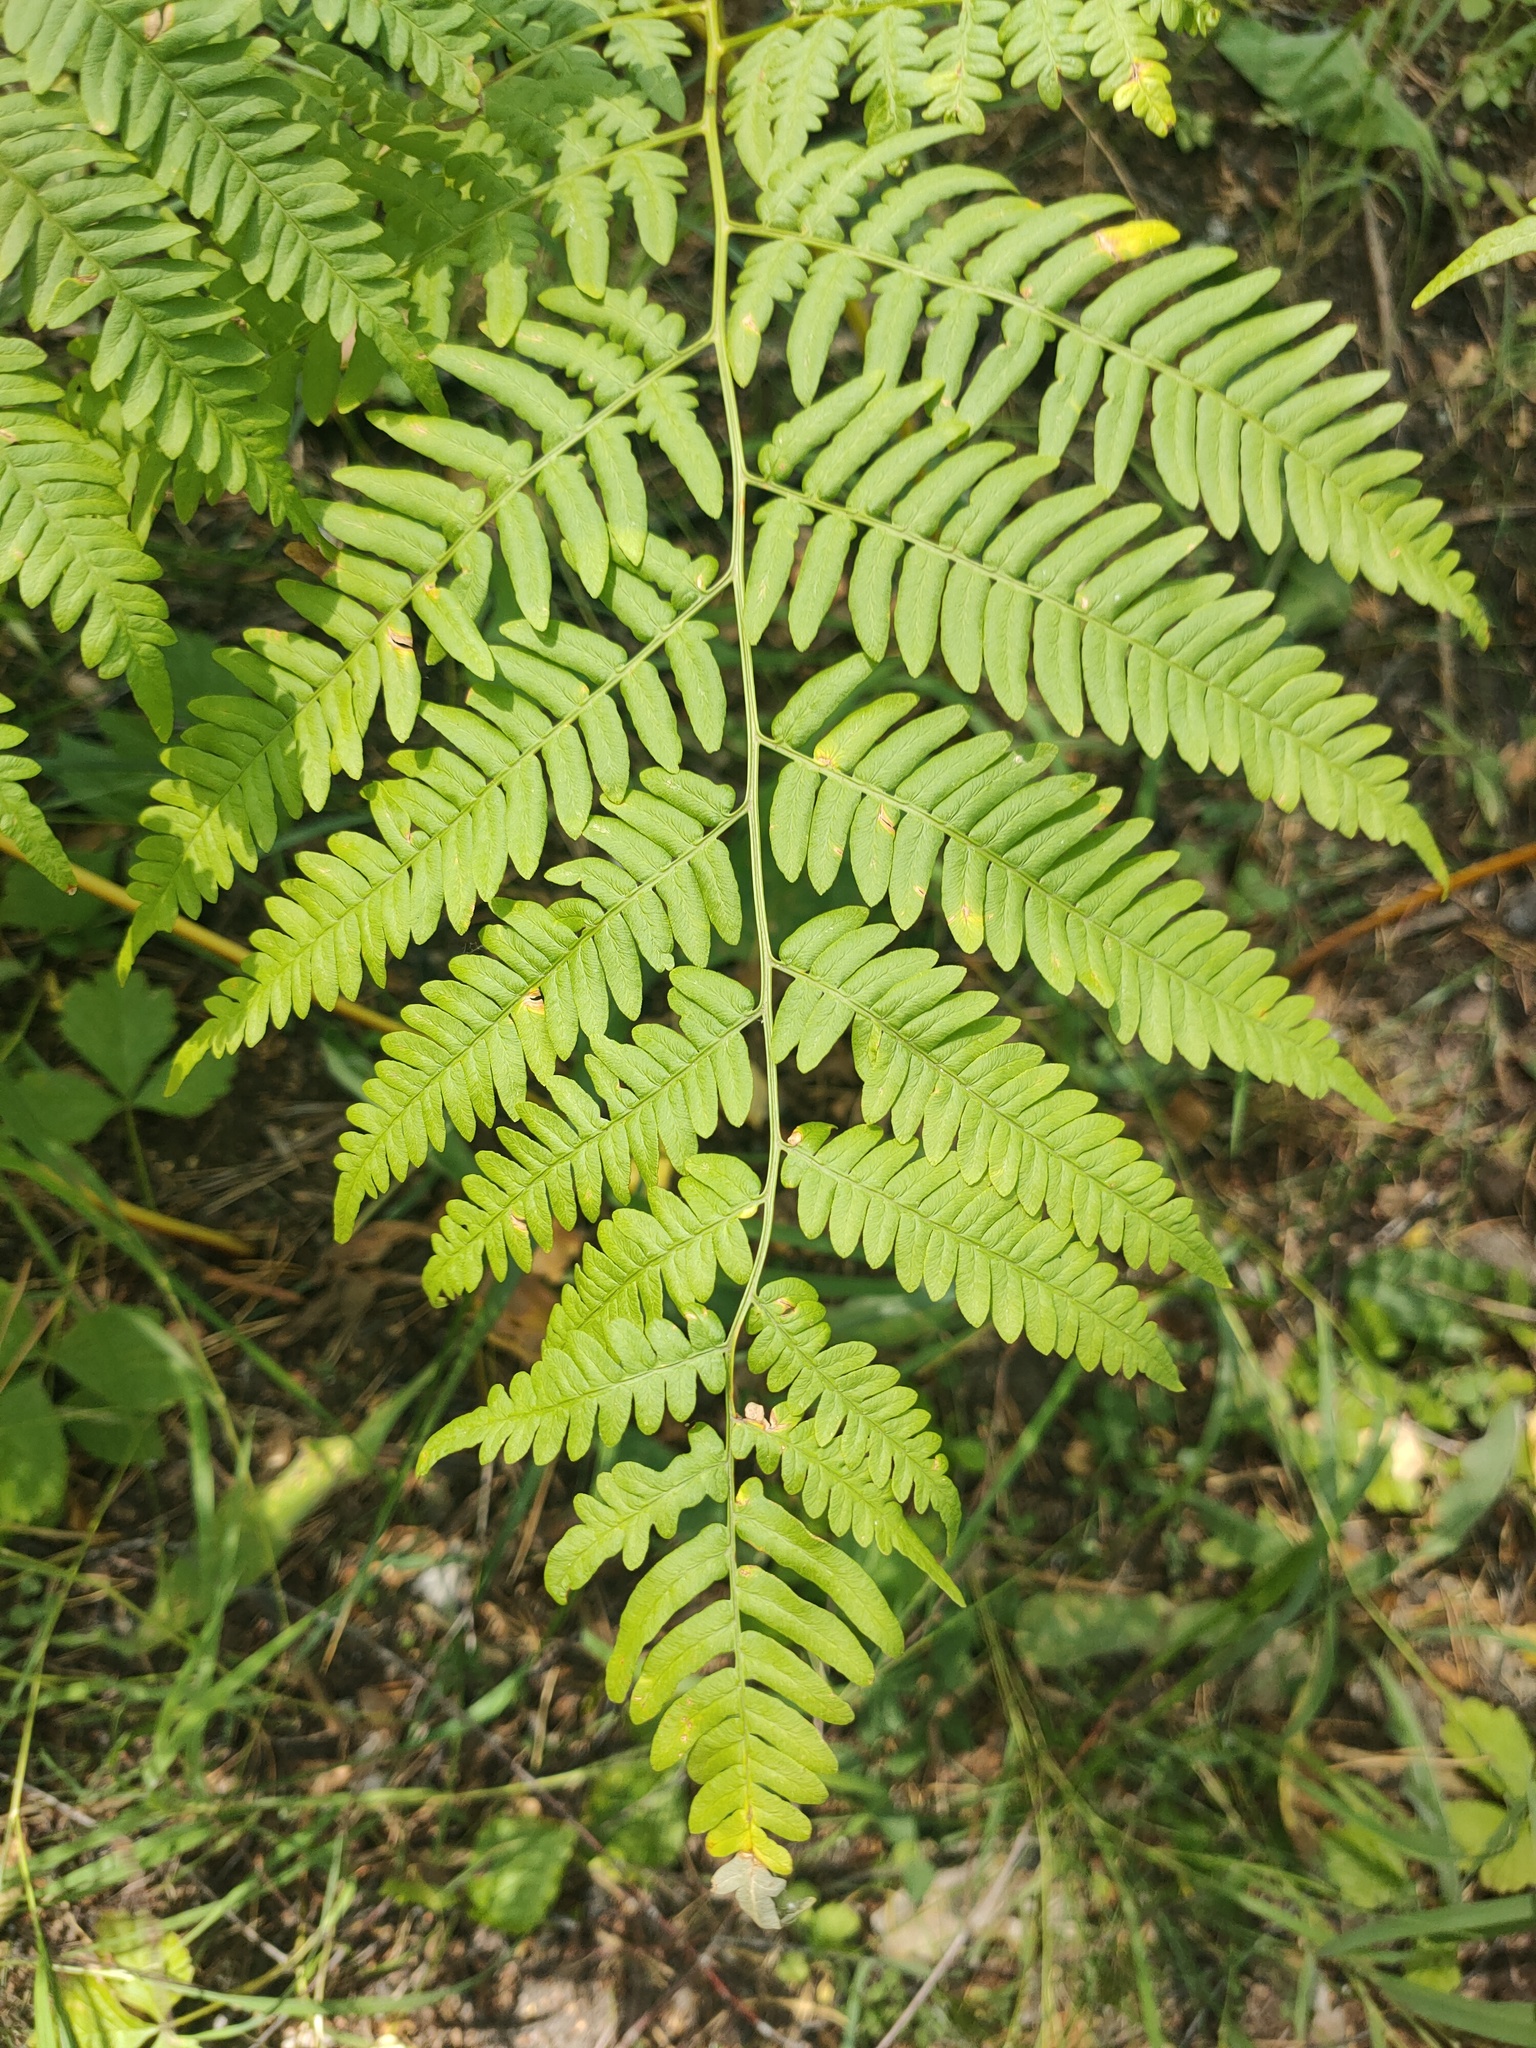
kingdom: Plantae
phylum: Tracheophyta
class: Polypodiopsida
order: Polypodiales
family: Dennstaedtiaceae
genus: Pteridium
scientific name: Pteridium aquilinum
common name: Bracken
